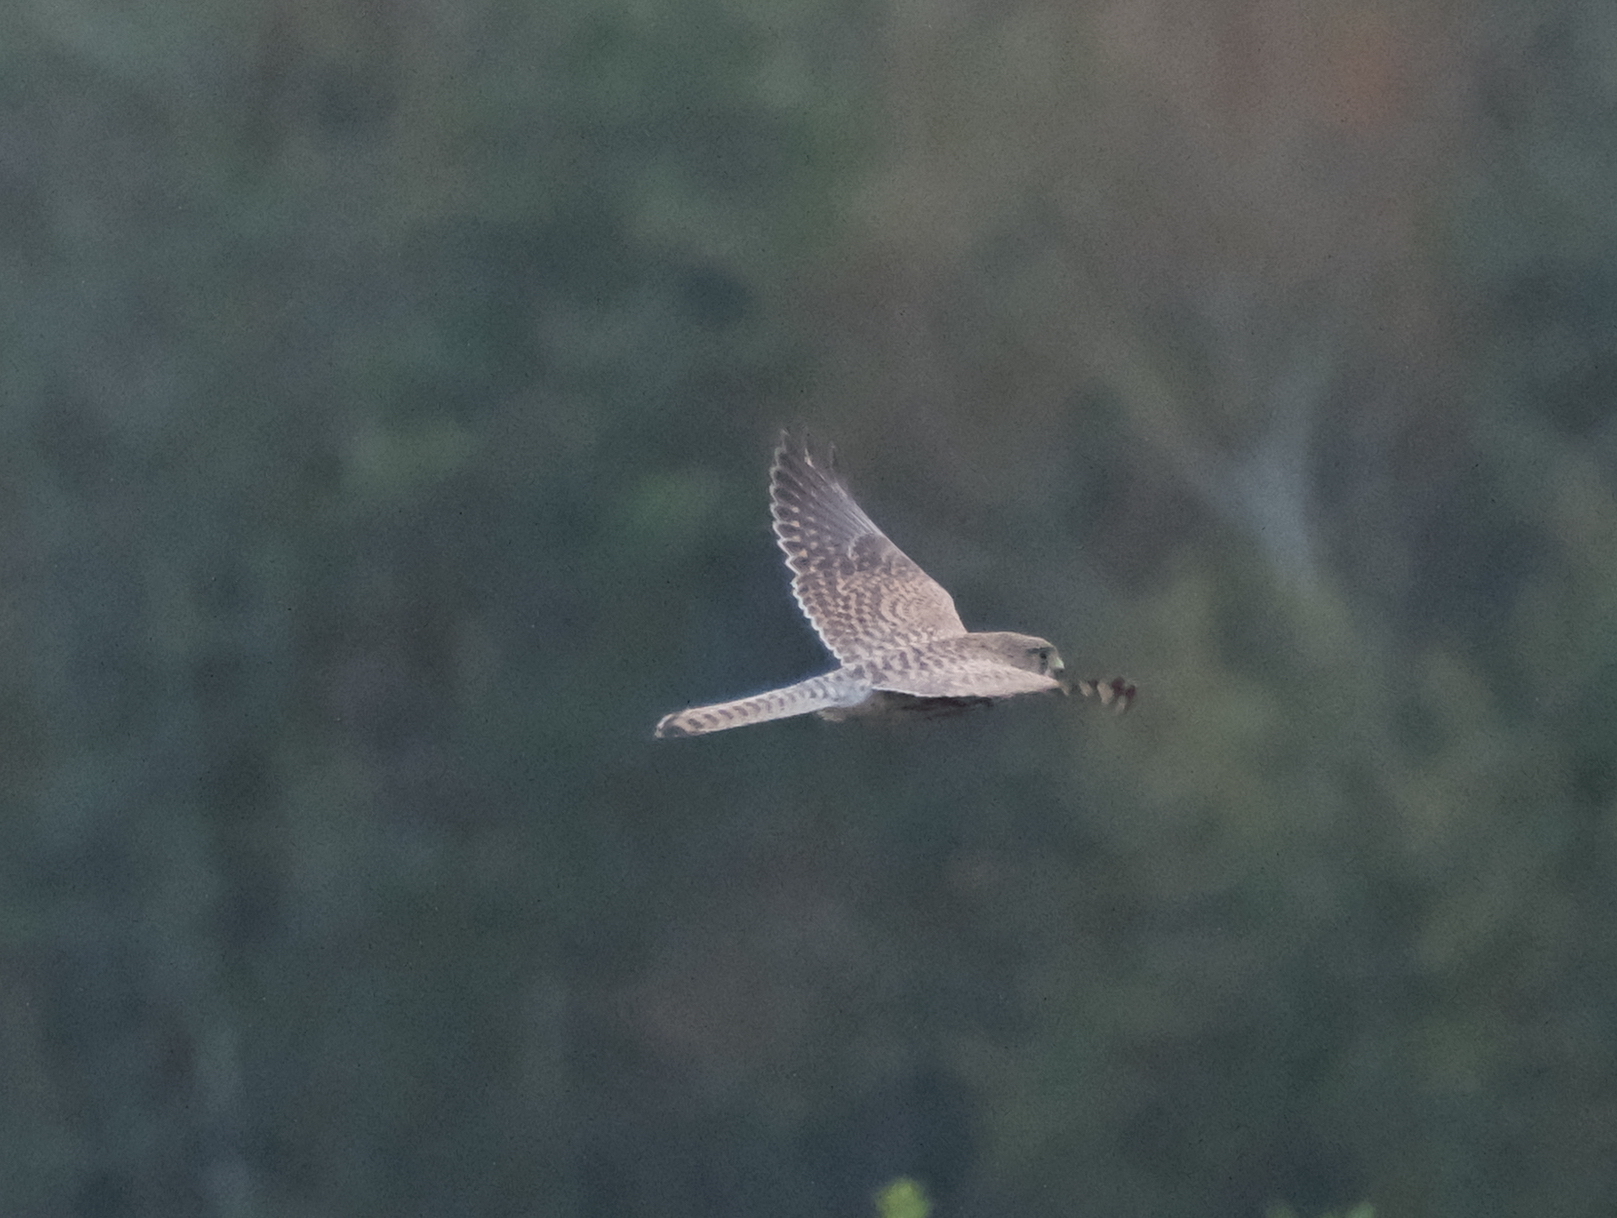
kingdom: Animalia
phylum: Chordata
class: Aves
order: Falconiformes
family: Falconidae
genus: Falco
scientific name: Falco tinnunculus
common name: Common kestrel
